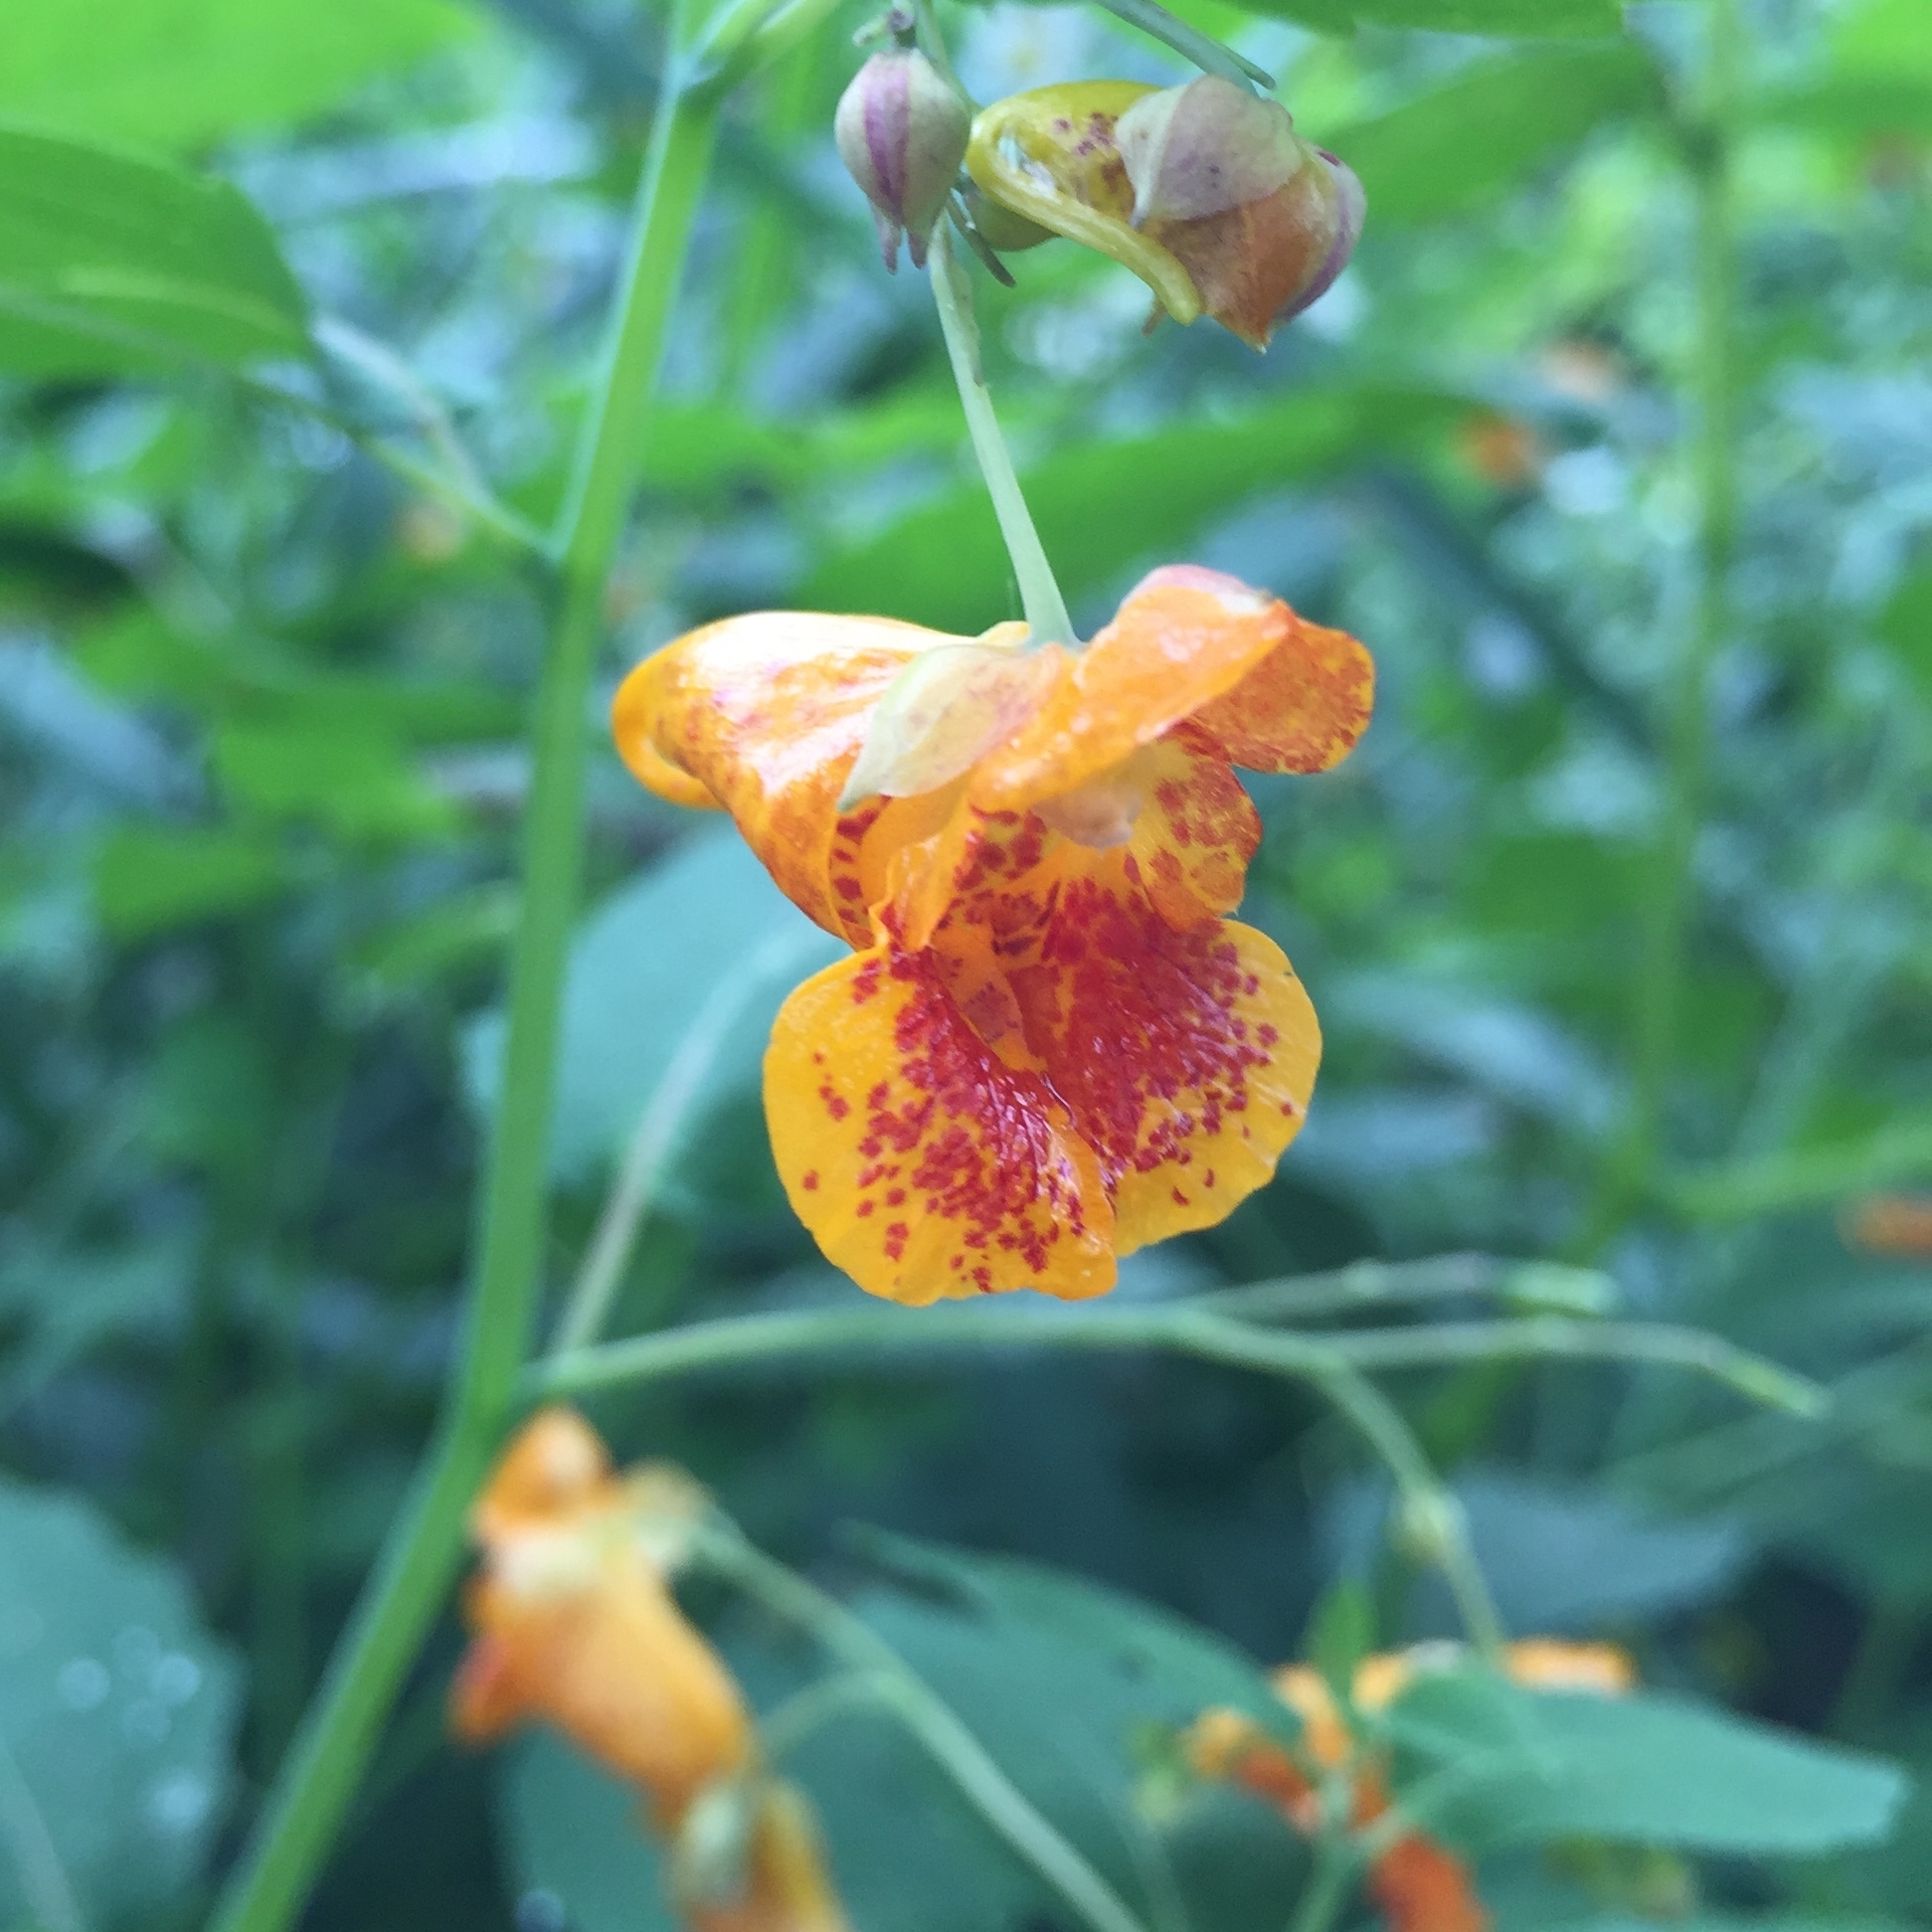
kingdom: Plantae
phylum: Tracheophyta
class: Magnoliopsida
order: Ericales
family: Balsaminaceae
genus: Impatiens
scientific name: Impatiens capensis
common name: Orange balsam
